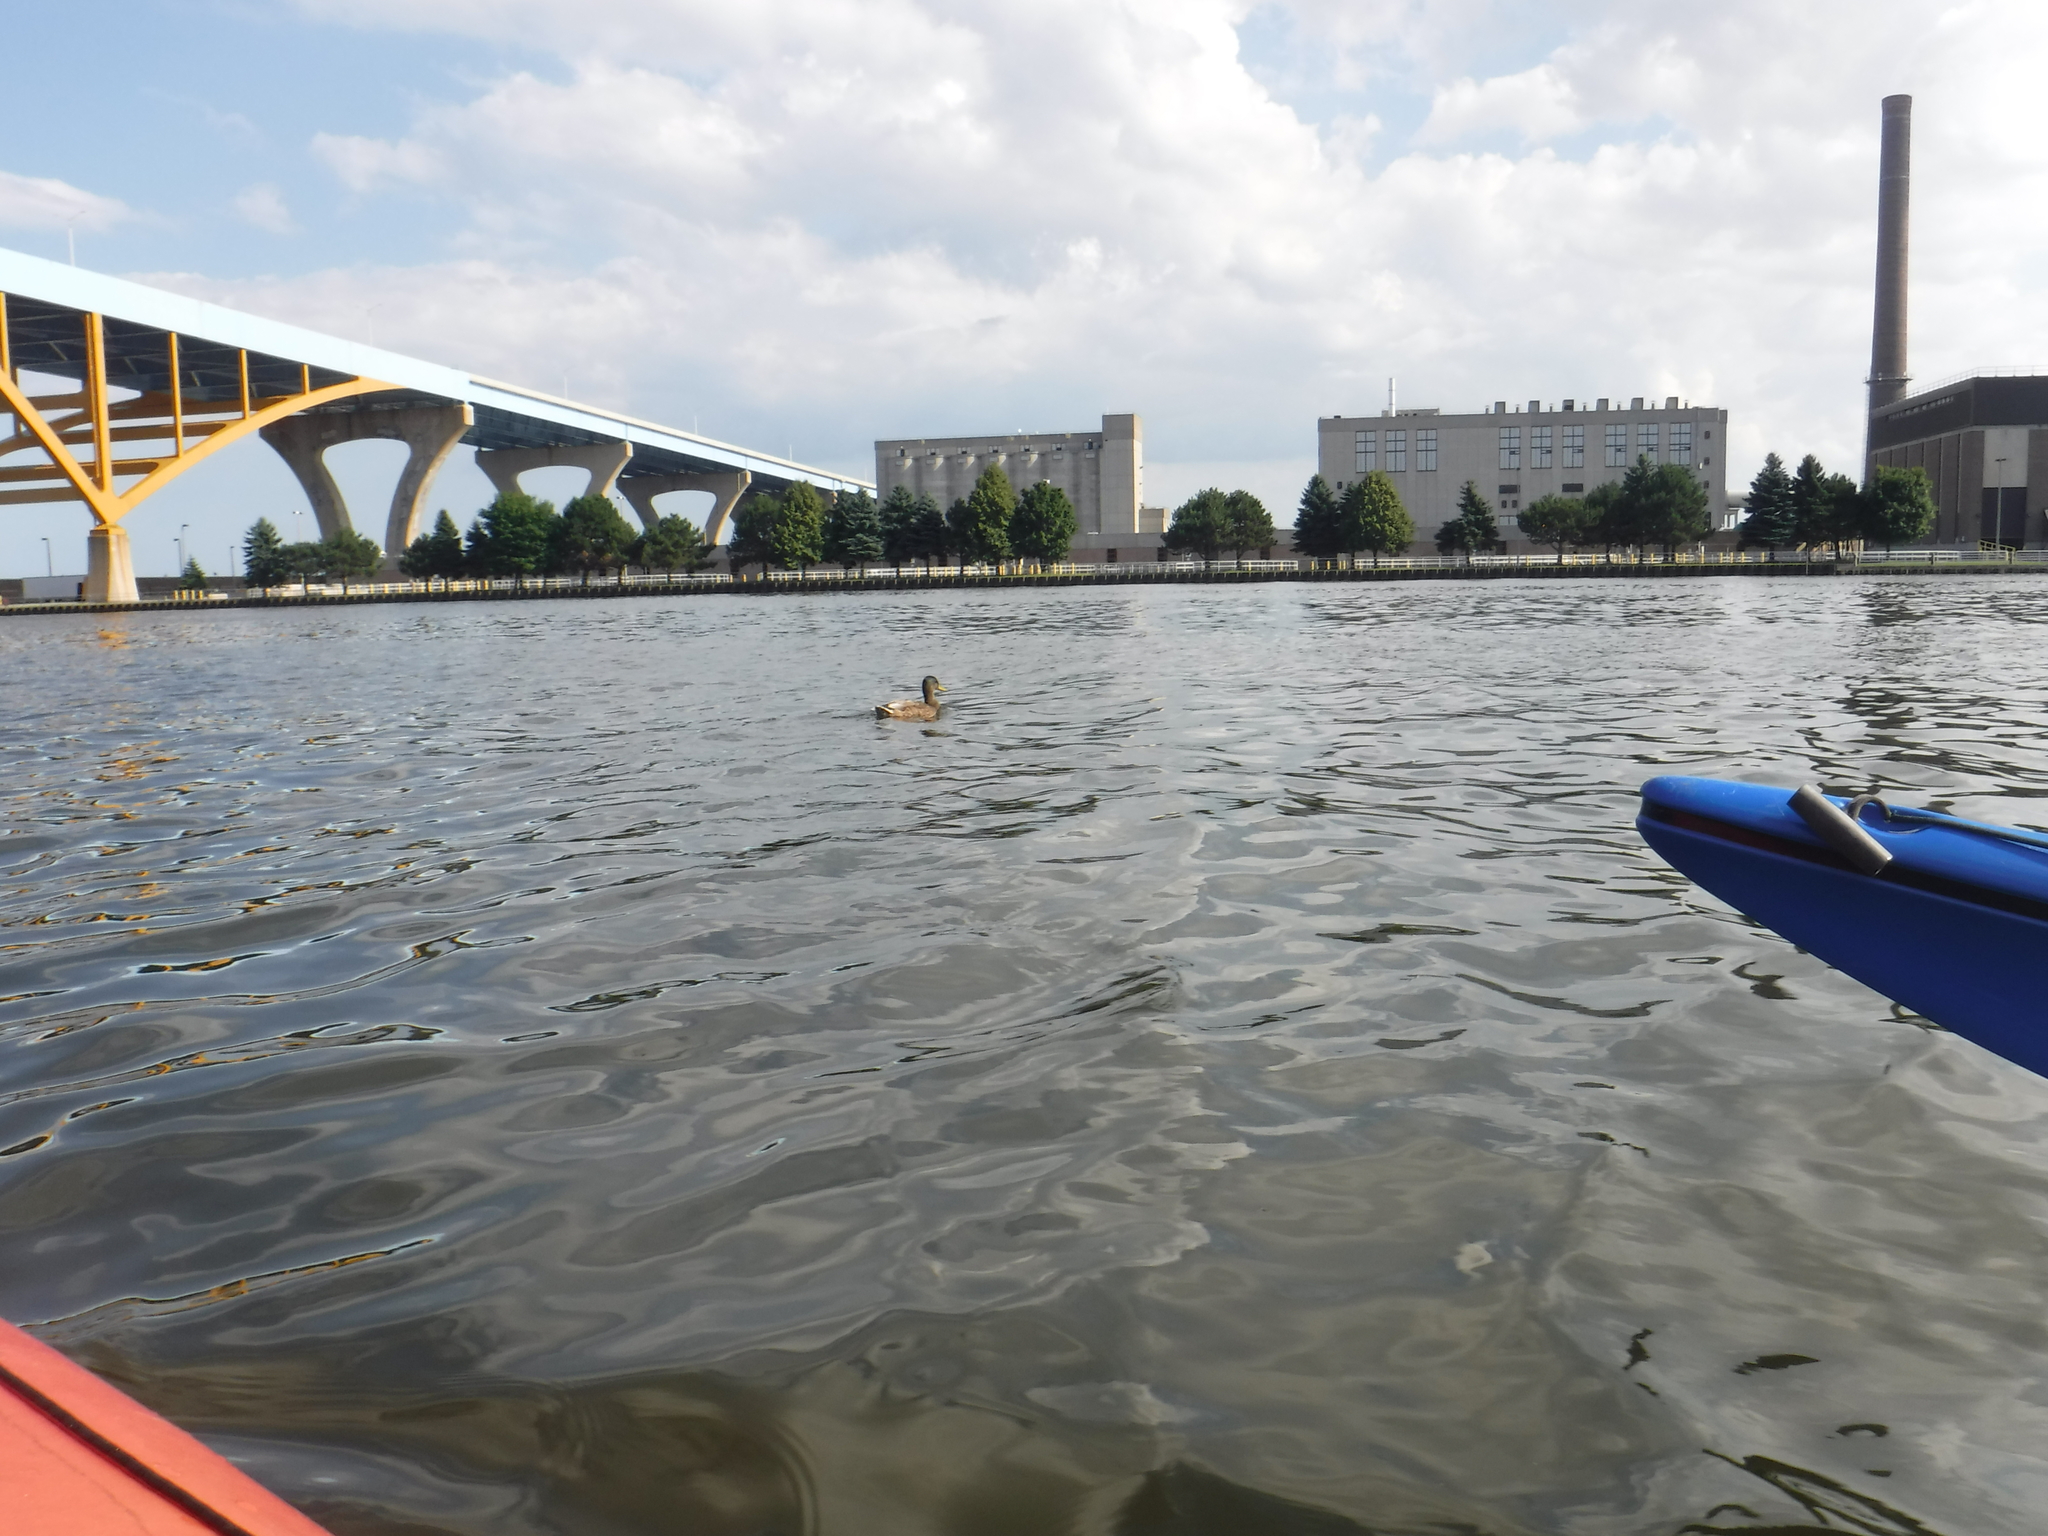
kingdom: Animalia
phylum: Chordata
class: Aves
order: Anseriformes
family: Anatidae
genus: Anas
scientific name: Anas platyrhynchos
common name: Mallard
